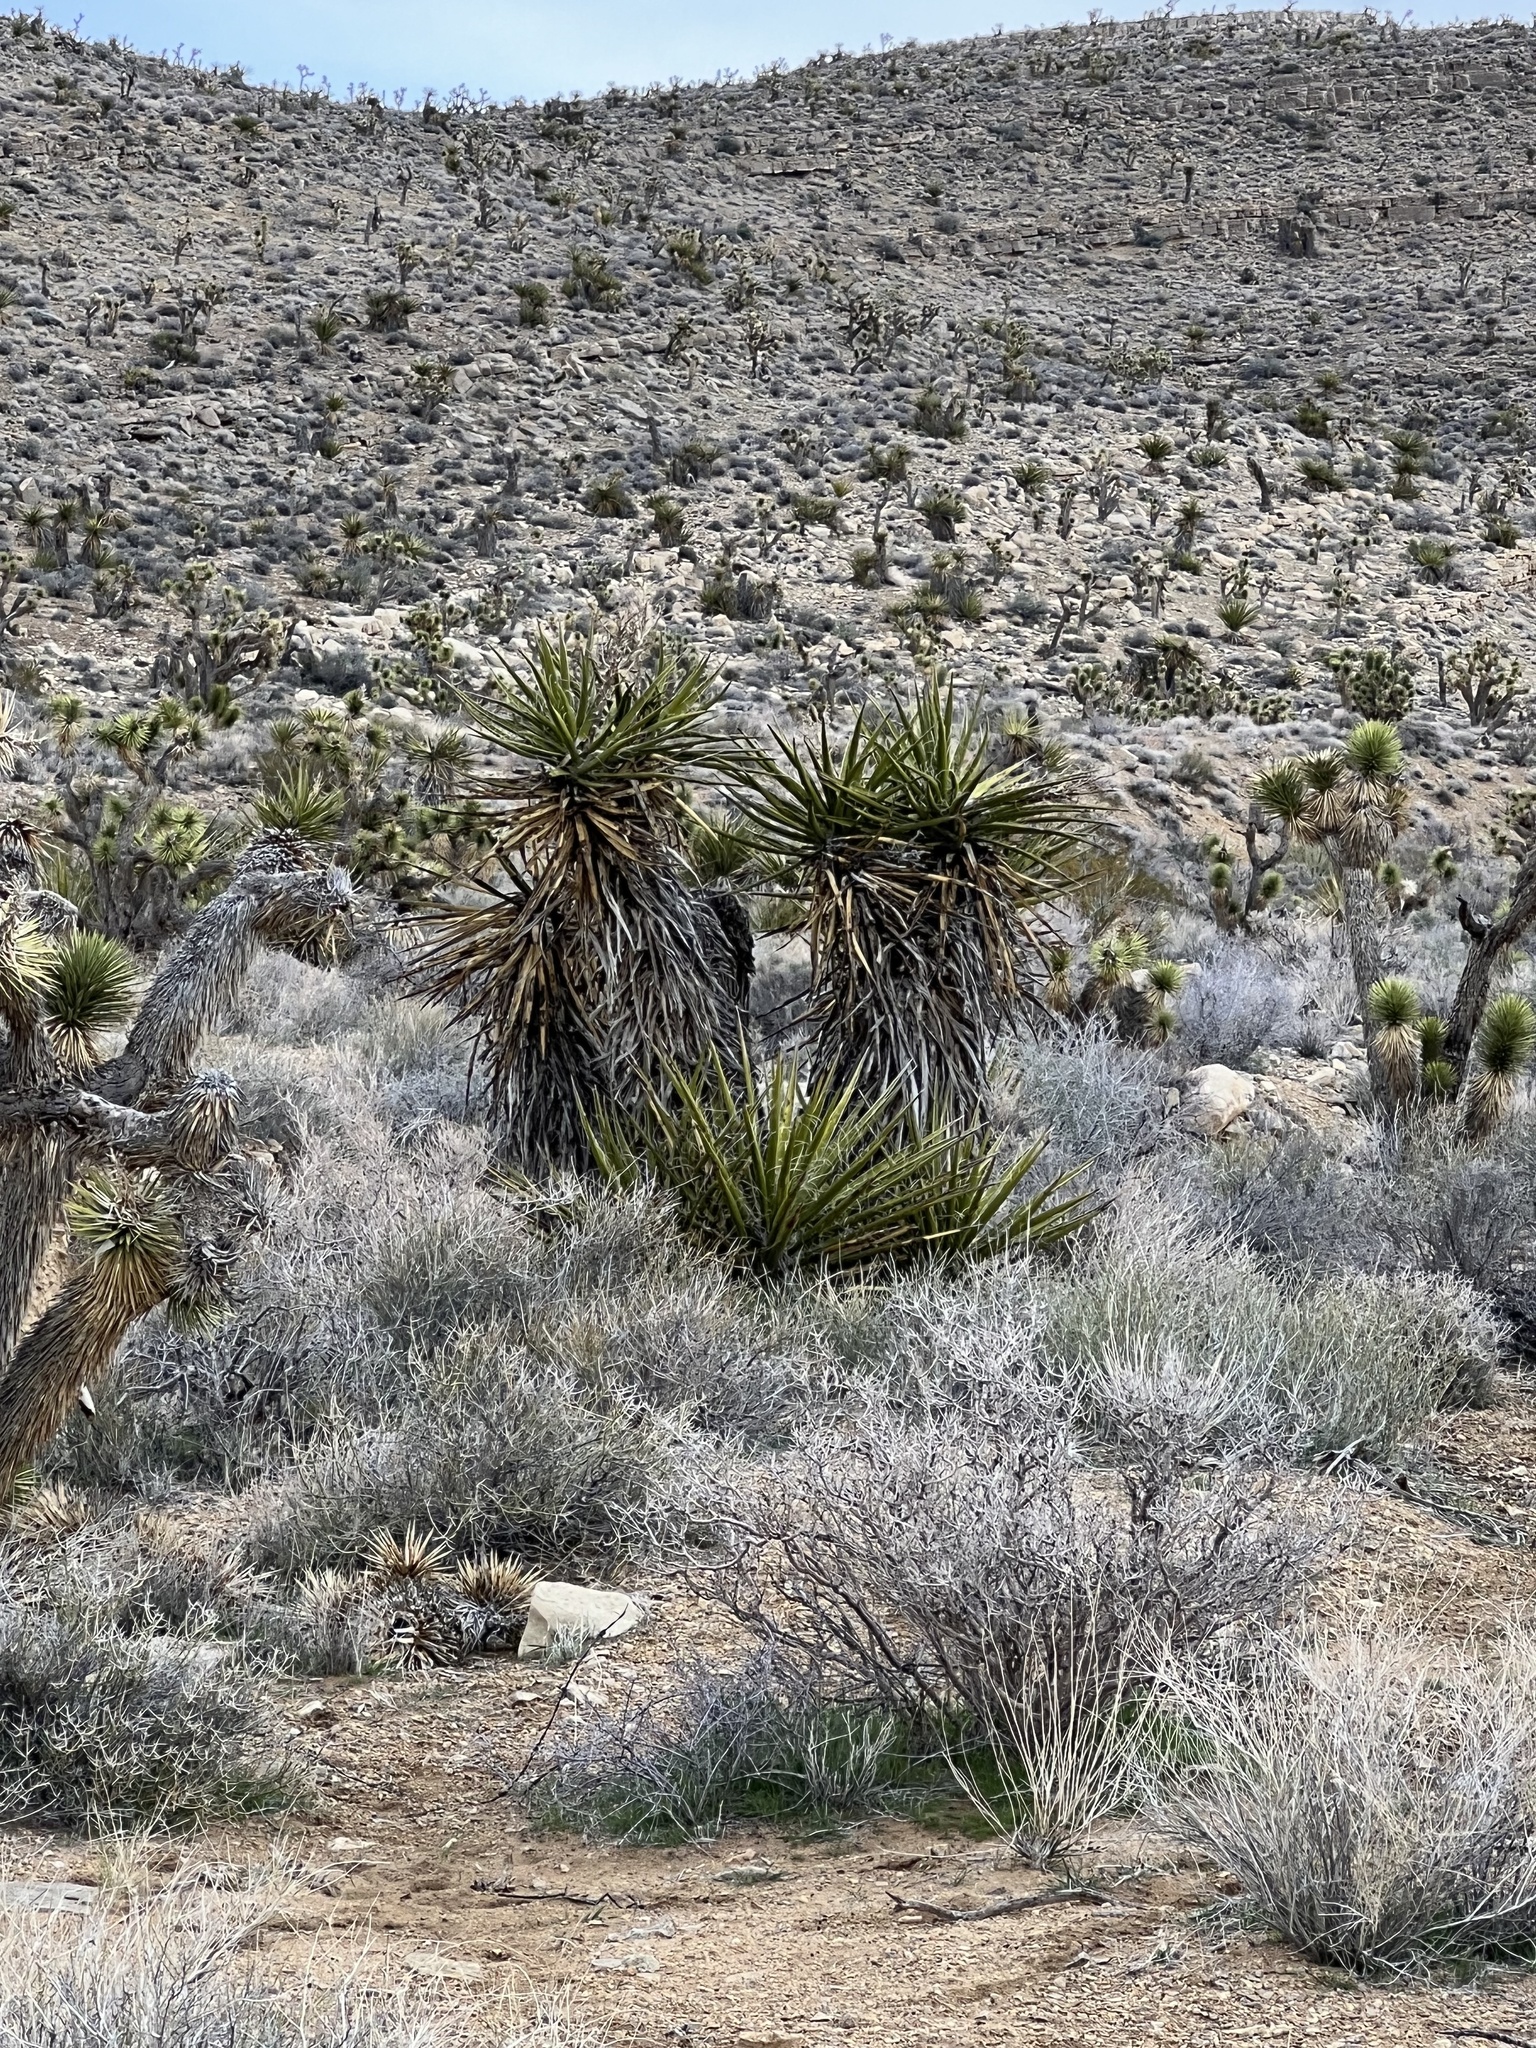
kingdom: Plantae
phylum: Tracheophyta
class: Liliopsida
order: Asparagales
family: Asparagaceae
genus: Yucca
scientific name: Yucca schidigera
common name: Mojave yucca
